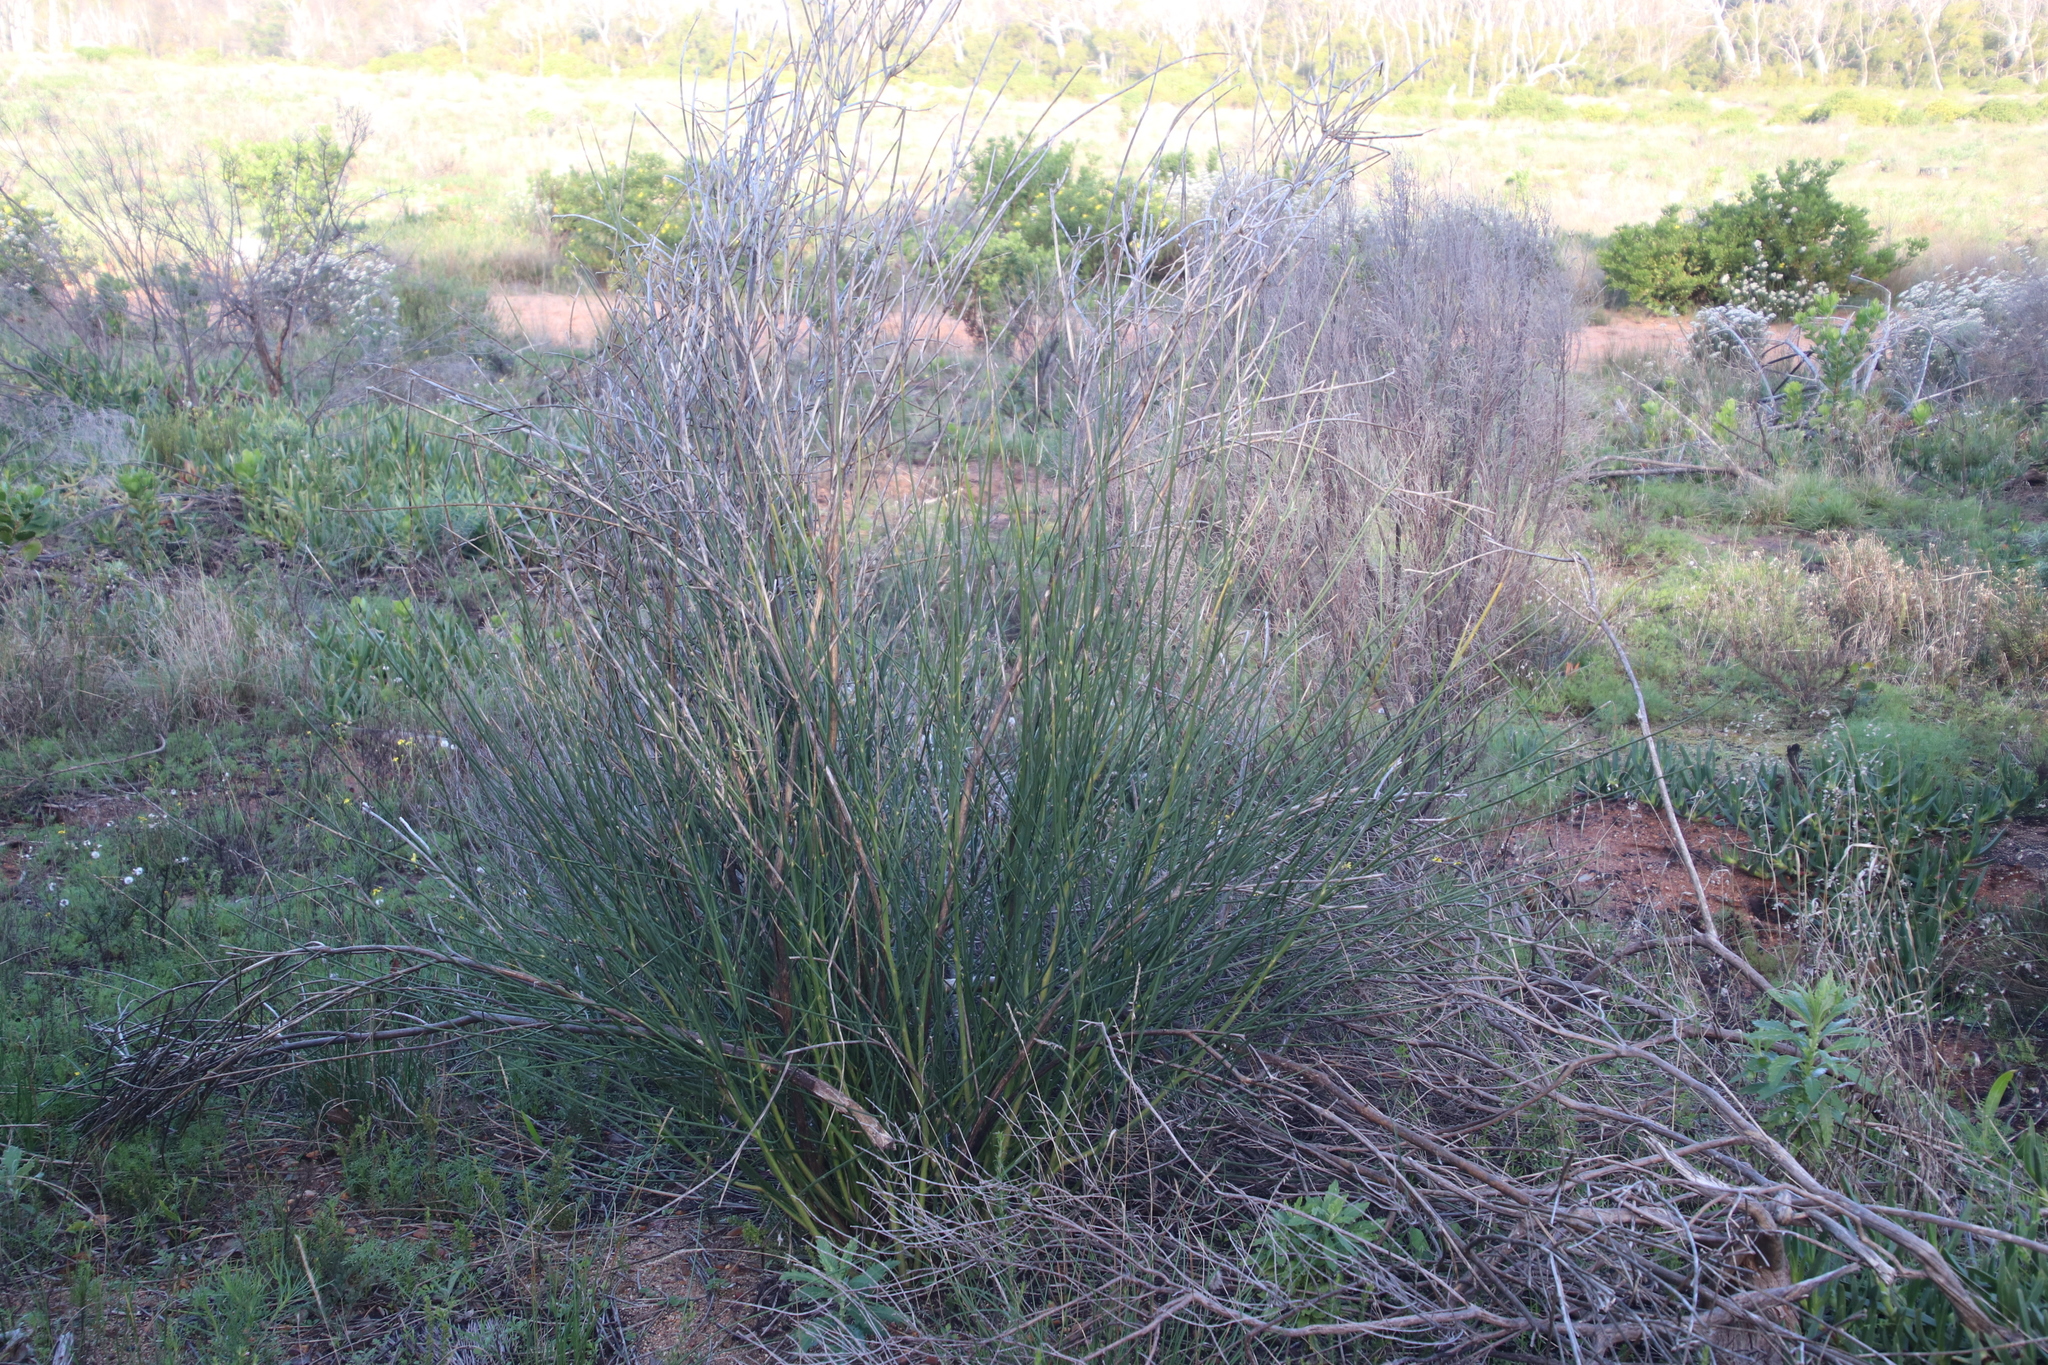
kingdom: Plantae
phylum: Tracheophyta
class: Magnoliopsida
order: Fabales
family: Fabaceae
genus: Spartium
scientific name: Spartium junceum
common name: Spanish broom
